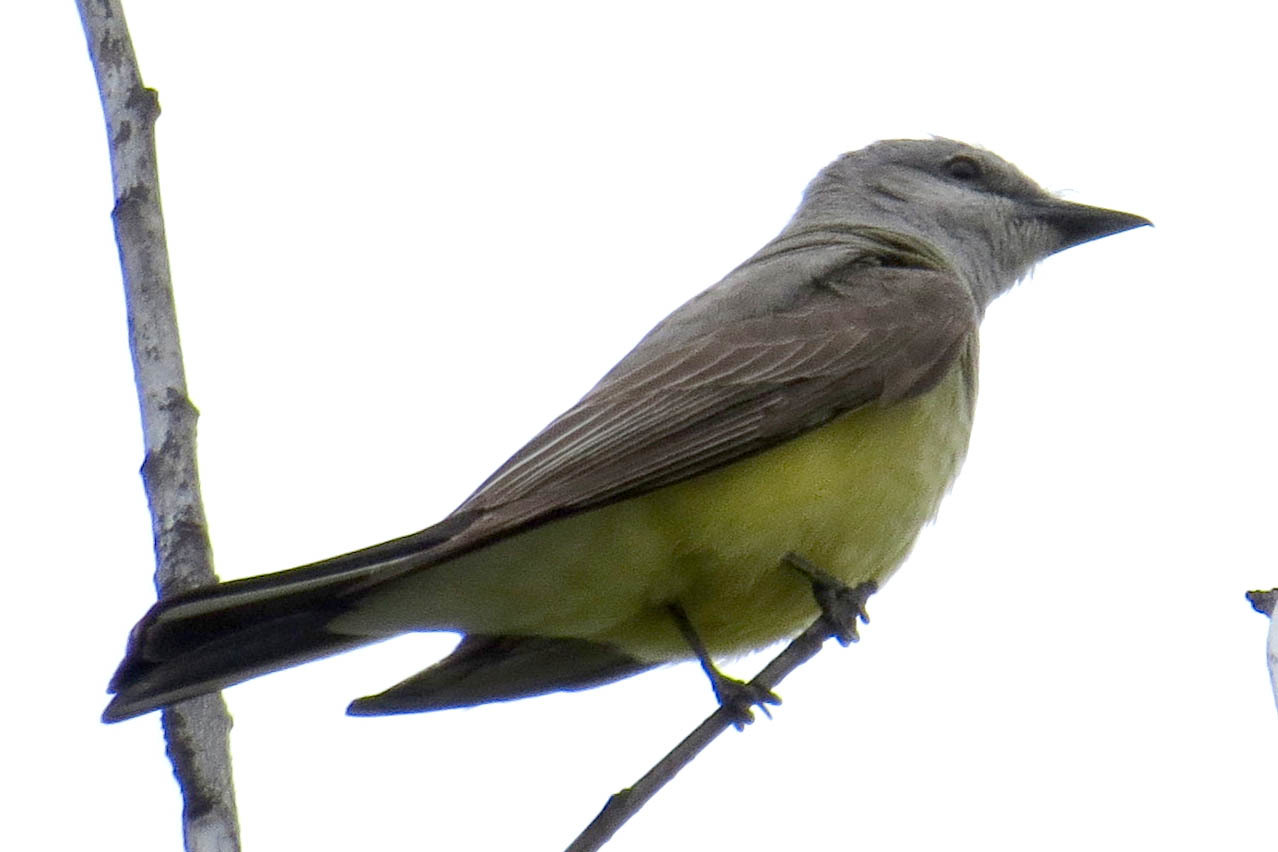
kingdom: Animalia
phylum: Chordata
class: Aves
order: Passeriformes
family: Tyrannidae
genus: Tyrannus
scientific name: Tyrannus verticalis
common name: Western kingbird
